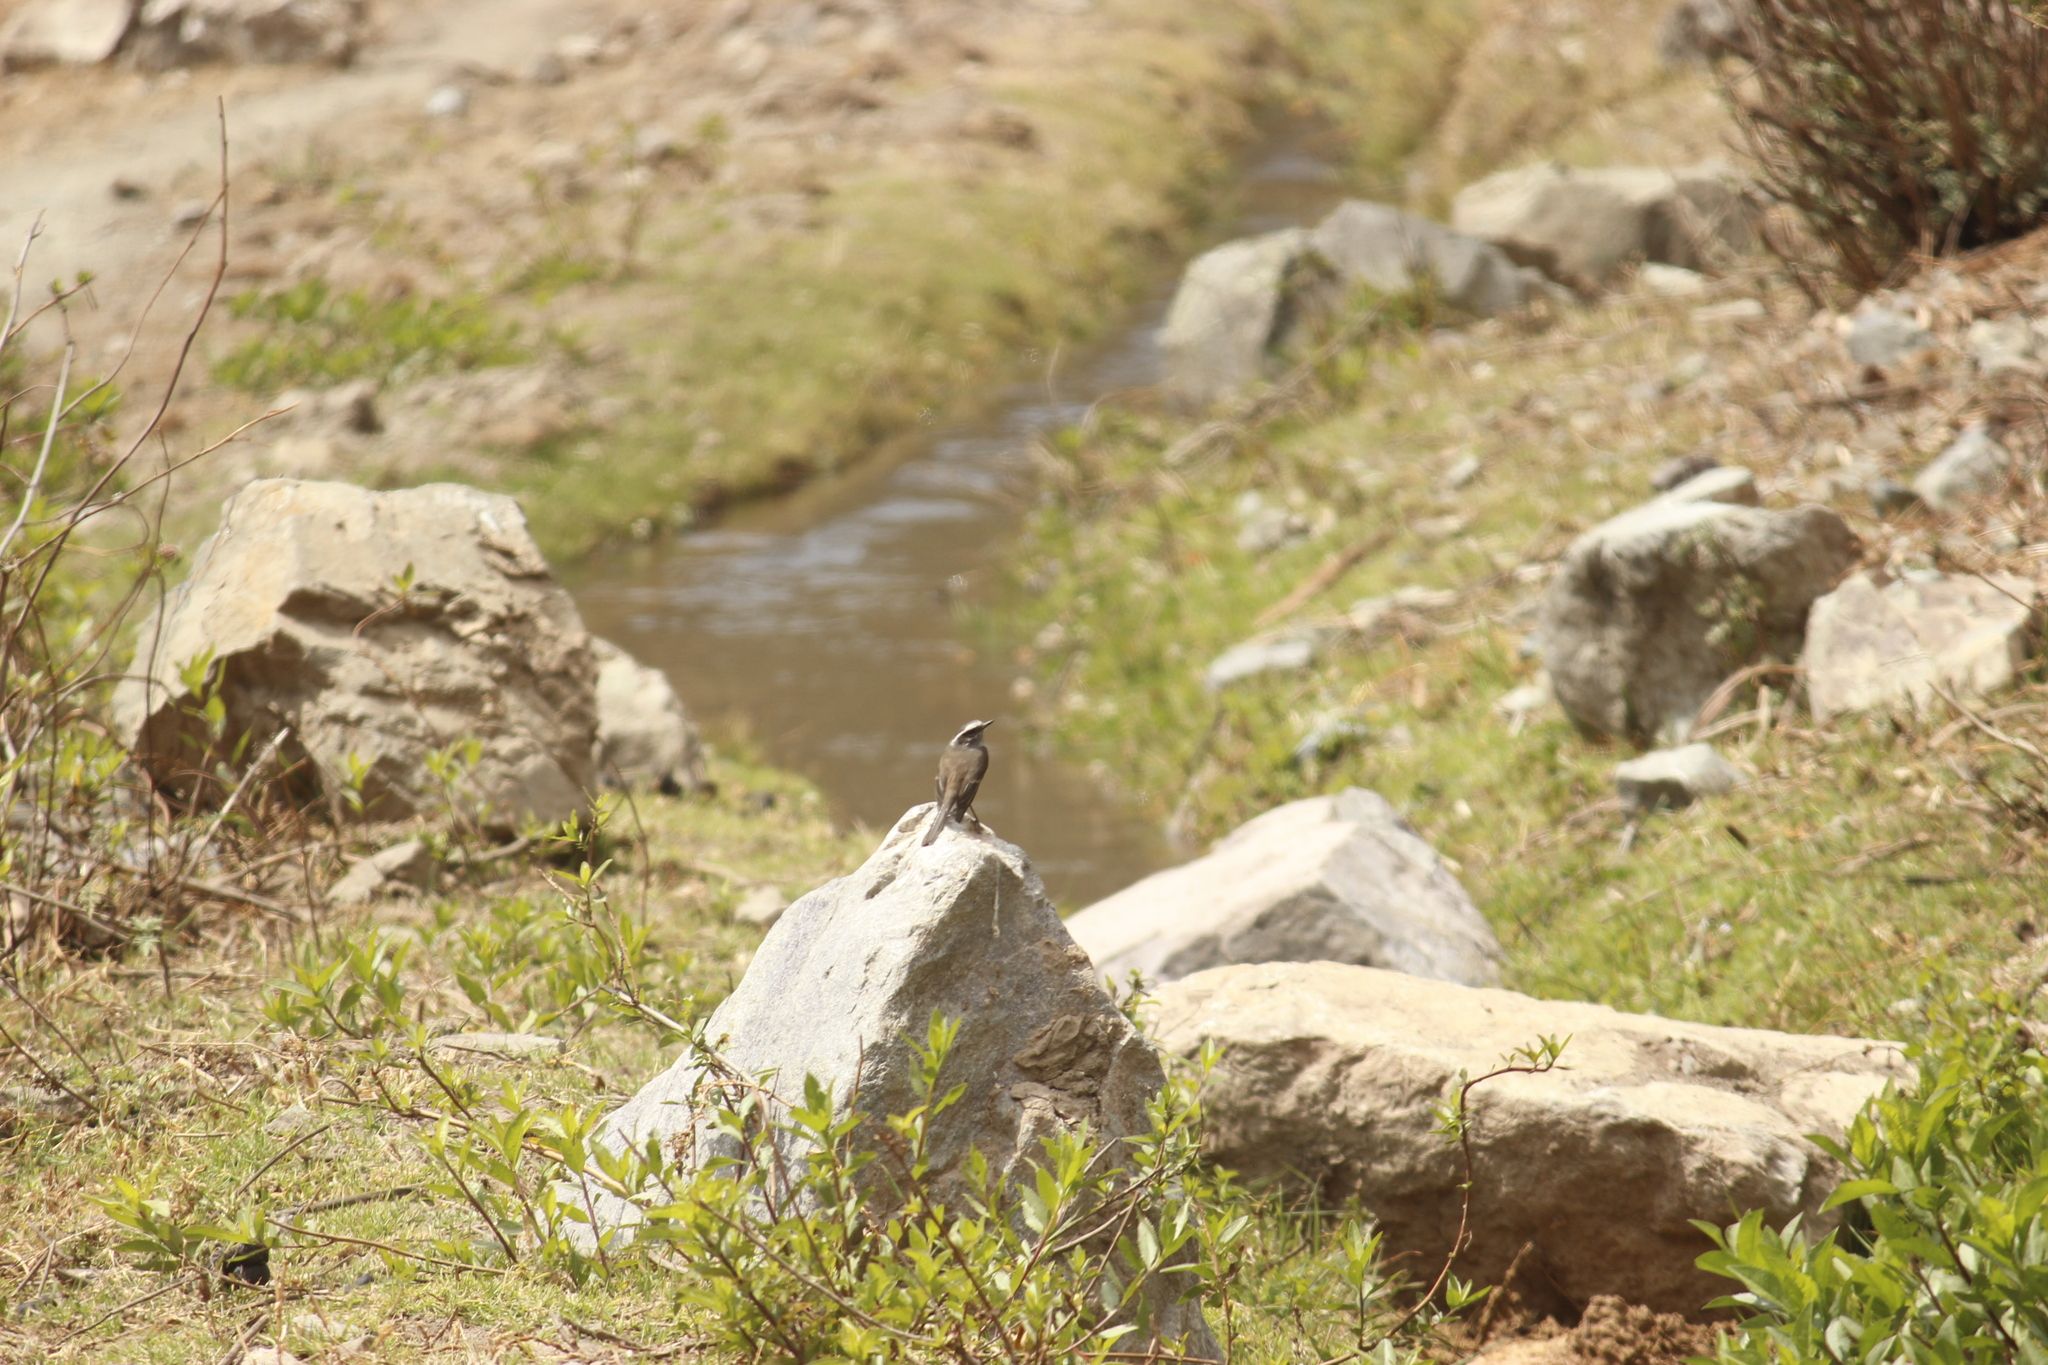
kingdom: Animalia
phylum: Chordata
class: Aves
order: Passeriformes
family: Tyrannidae
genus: Ochthoeca
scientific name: Ochthoeca leucophrys
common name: White-browed chat-tyrant
